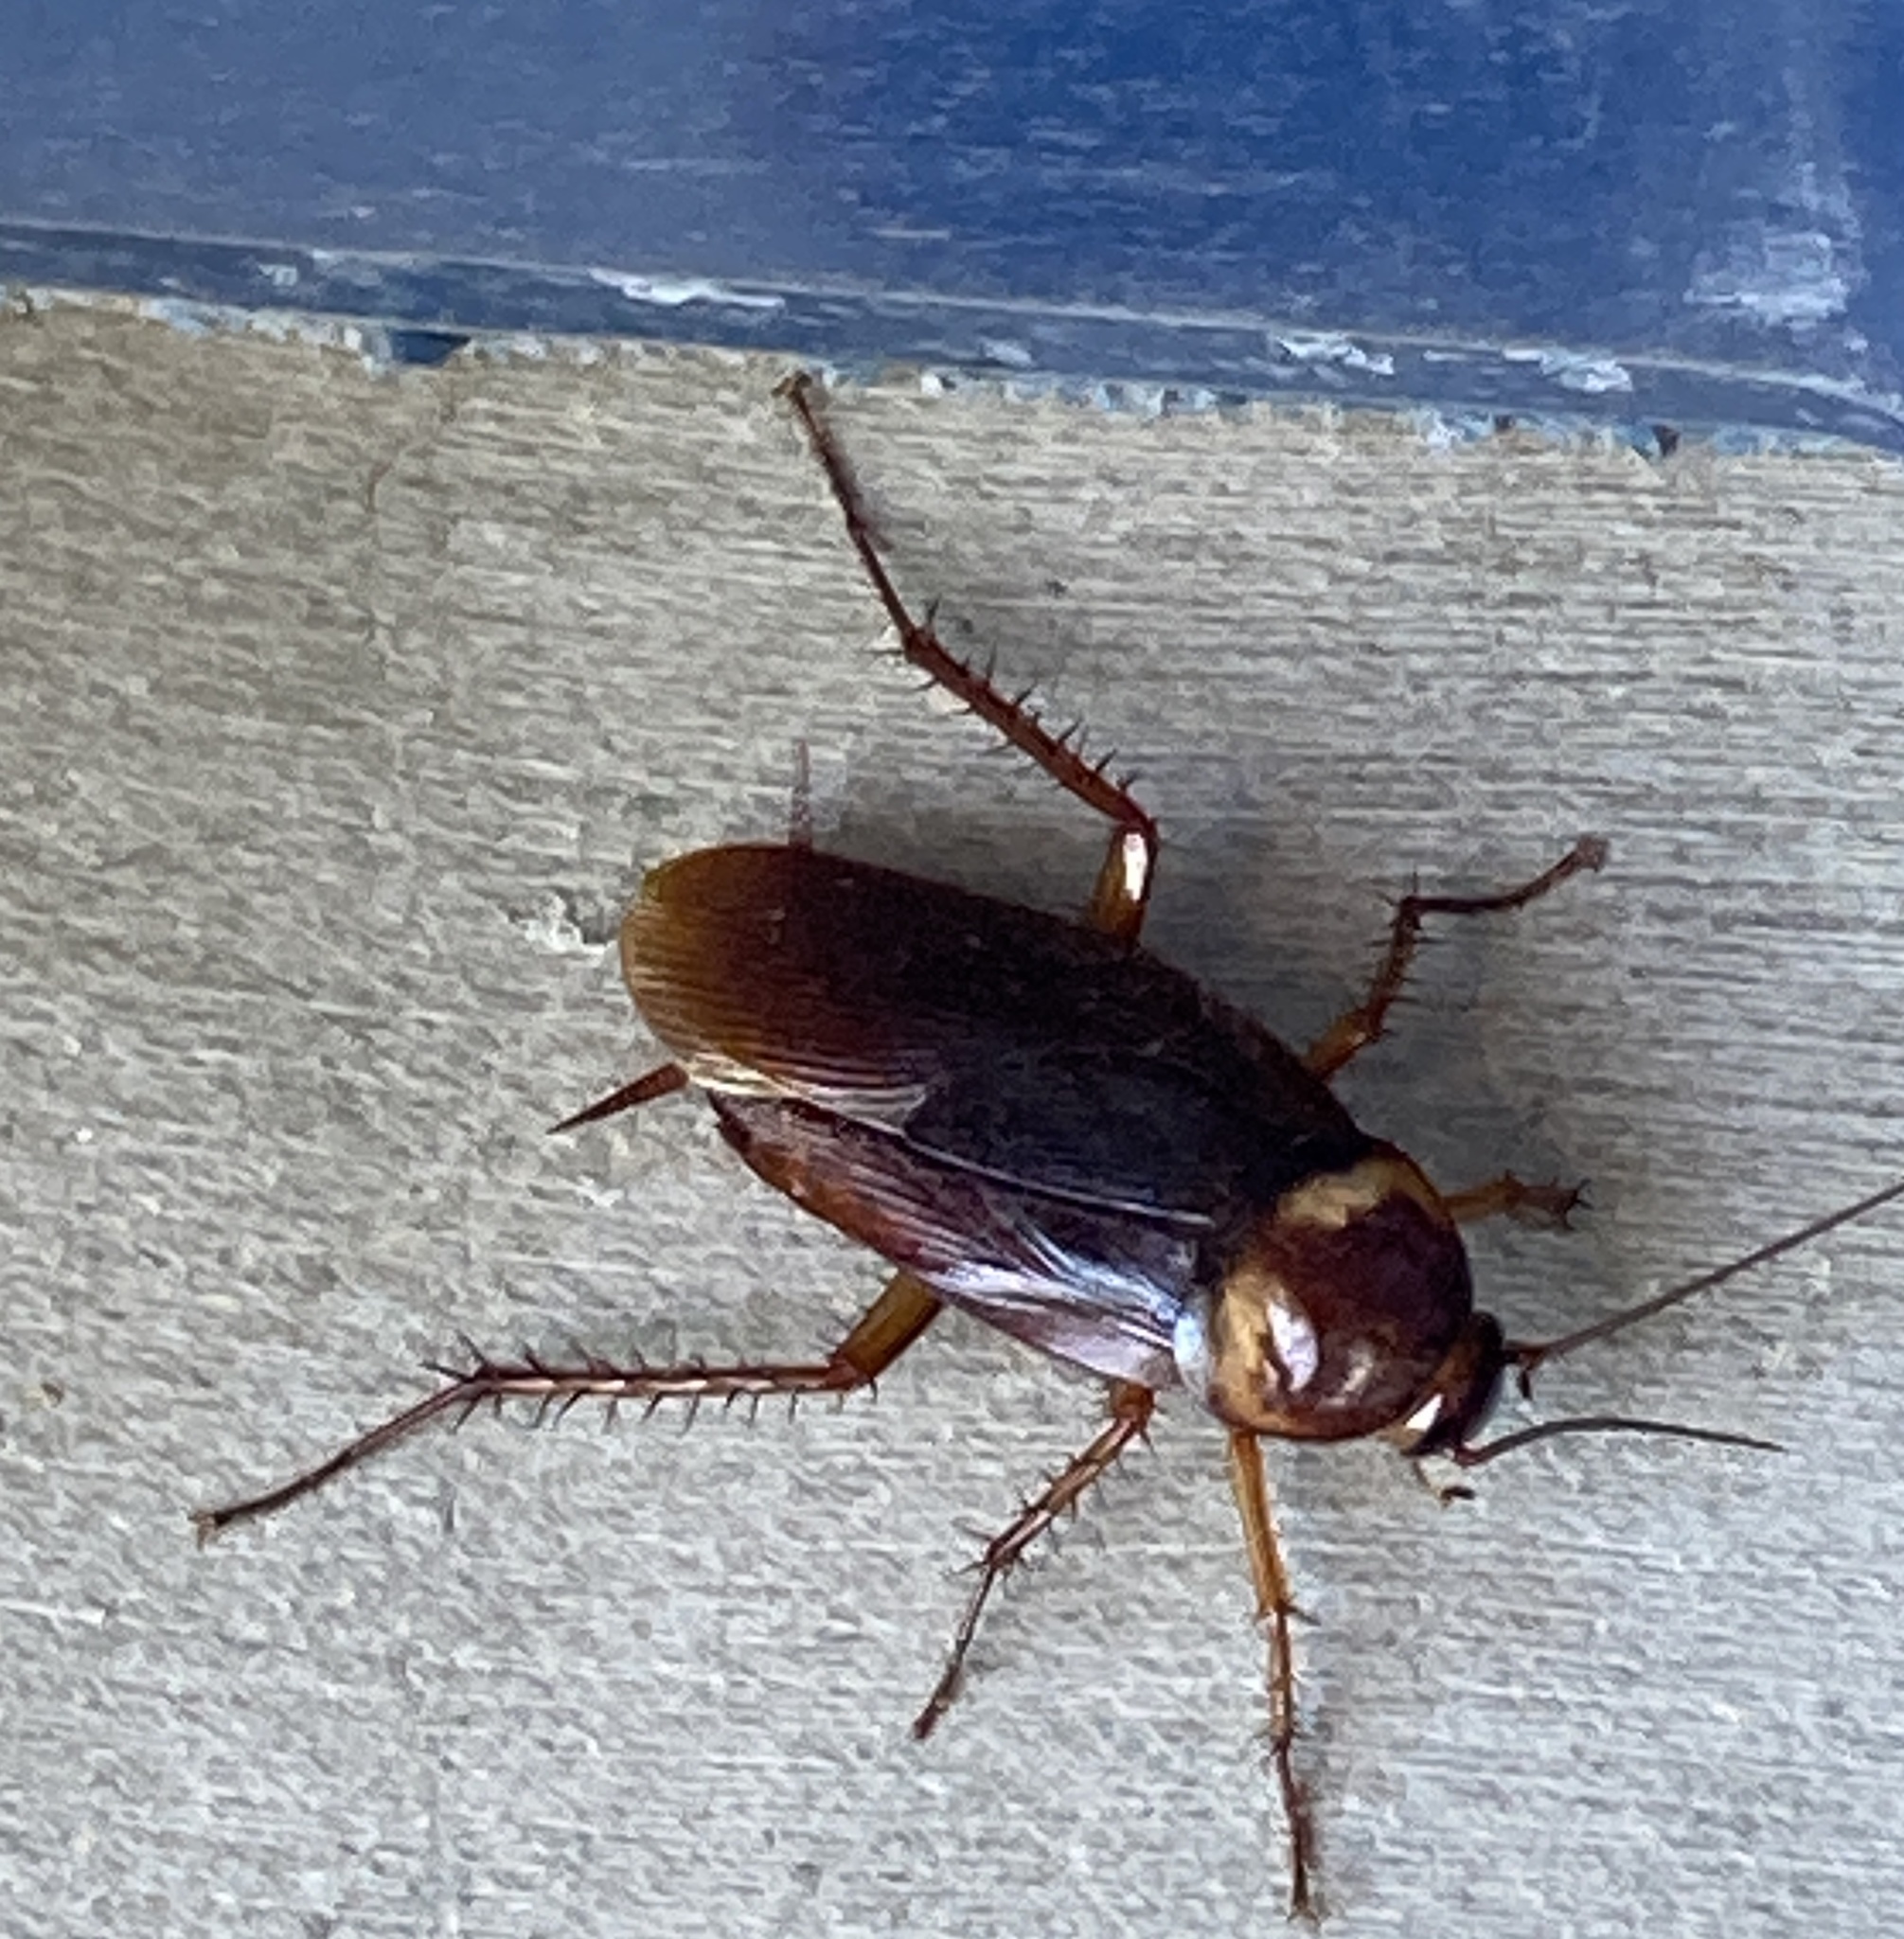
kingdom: Animalia
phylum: Arthropoda
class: Insecta
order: Blattodea
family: Blattidae
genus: Periplaneta
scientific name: Periplaneta americana
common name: American cockroach
